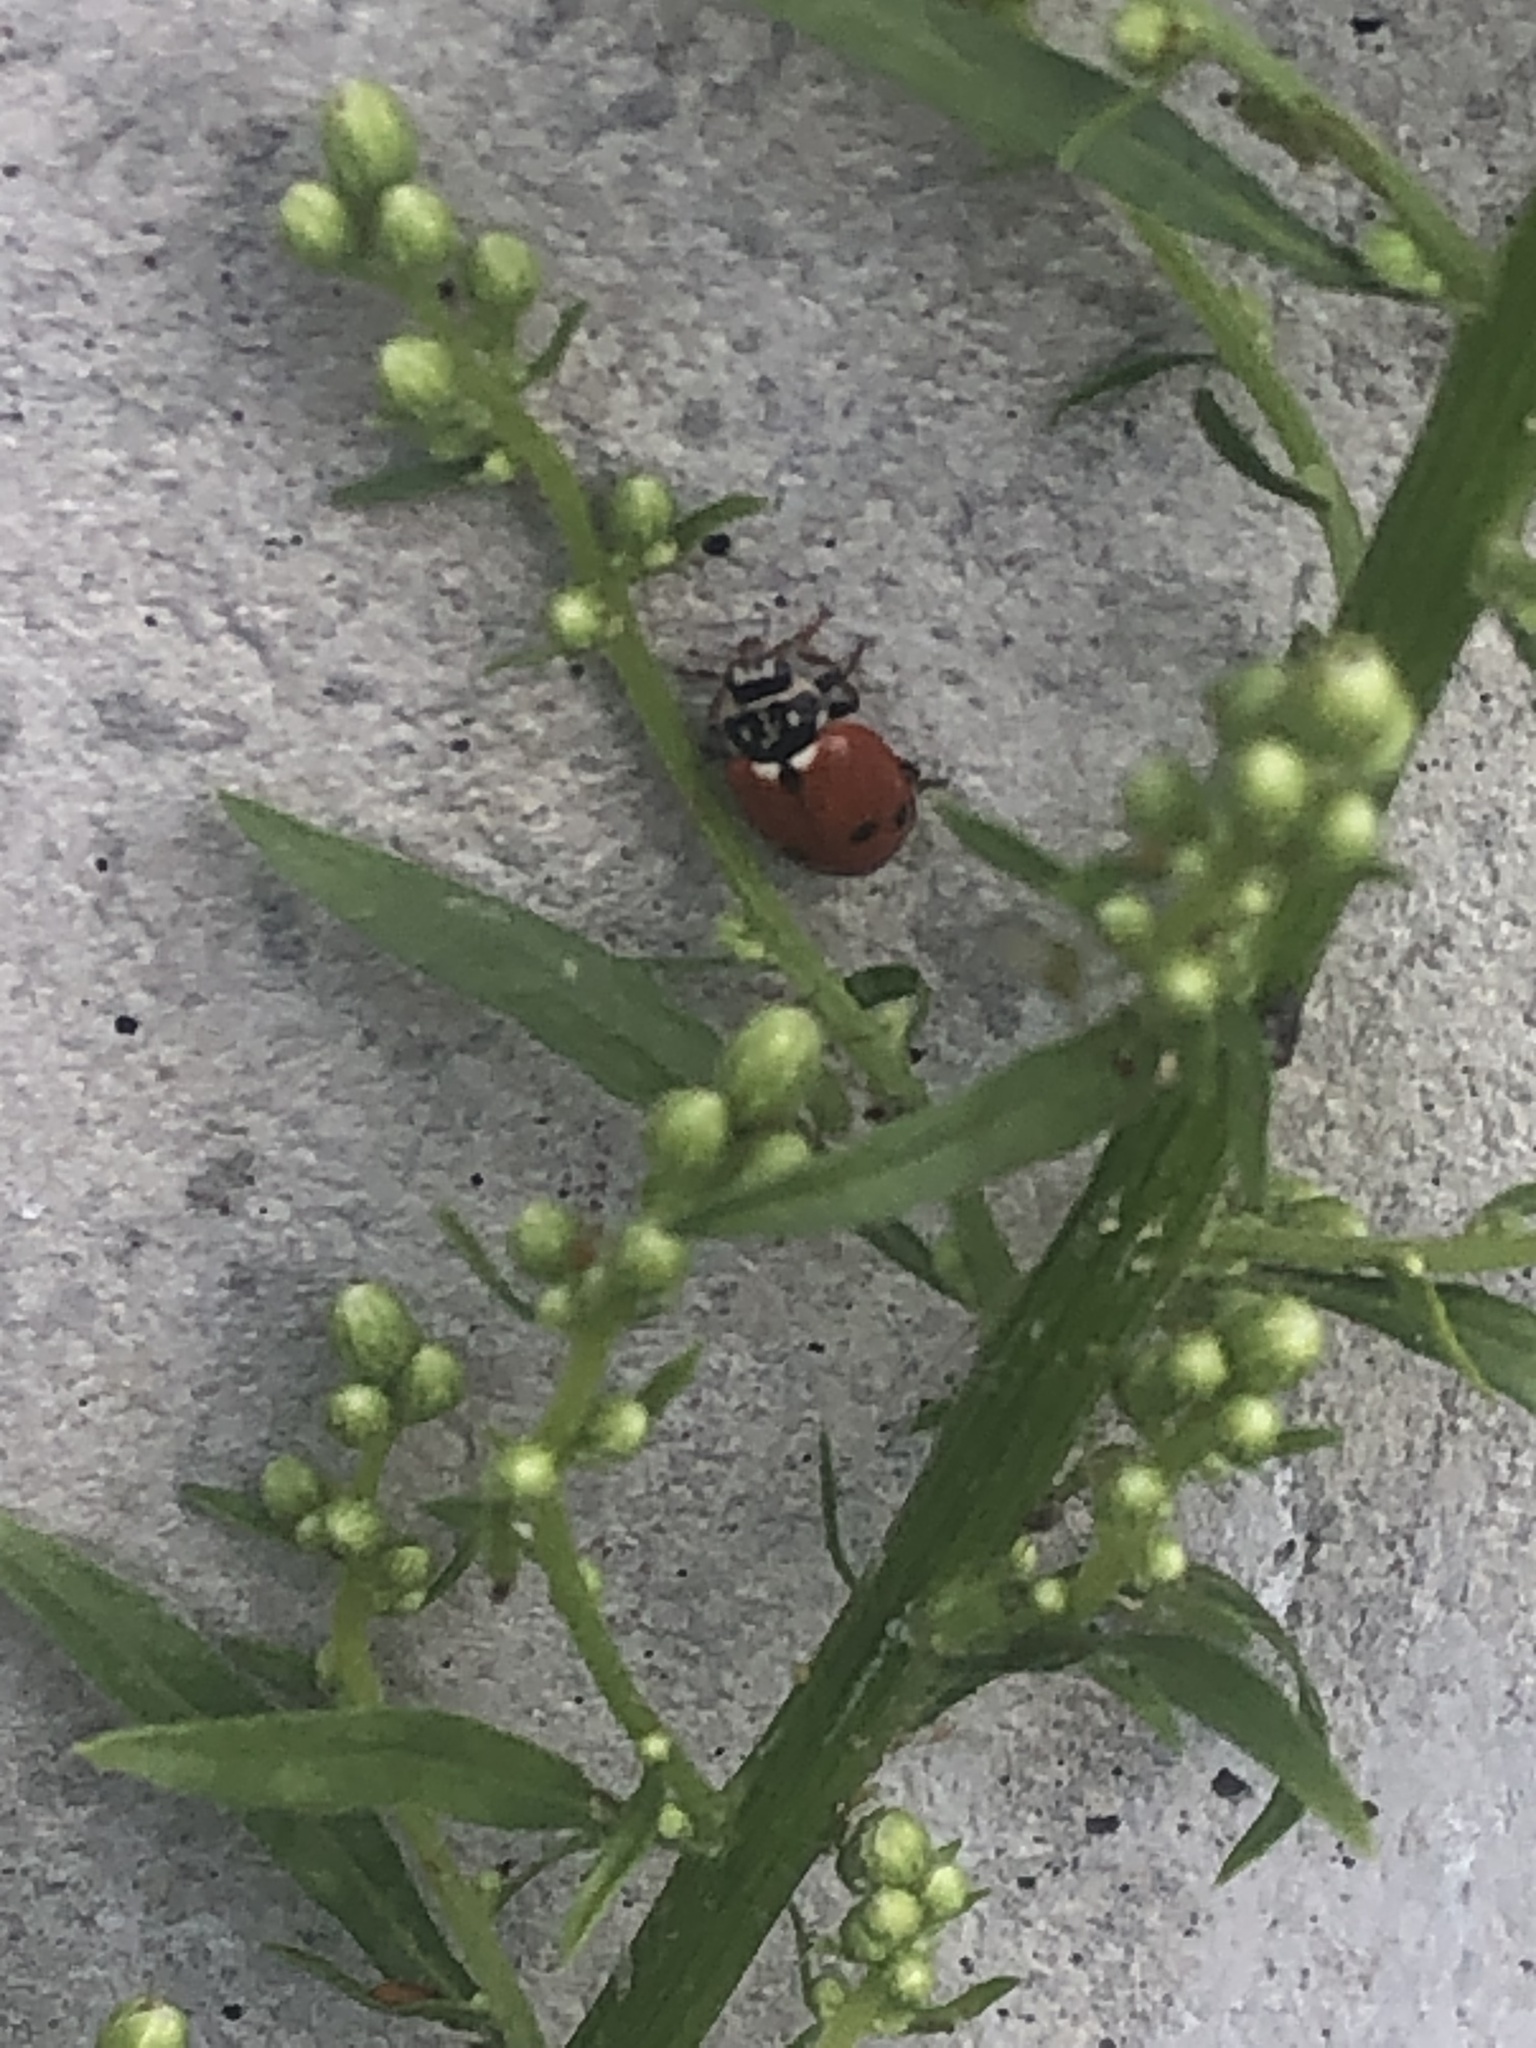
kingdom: Animalia
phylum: Arthropoda
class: Insecta
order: Coleoptera
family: Coccinellidae
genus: Hippodamia
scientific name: Hippodamia variegata
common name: Ladybird beetle
